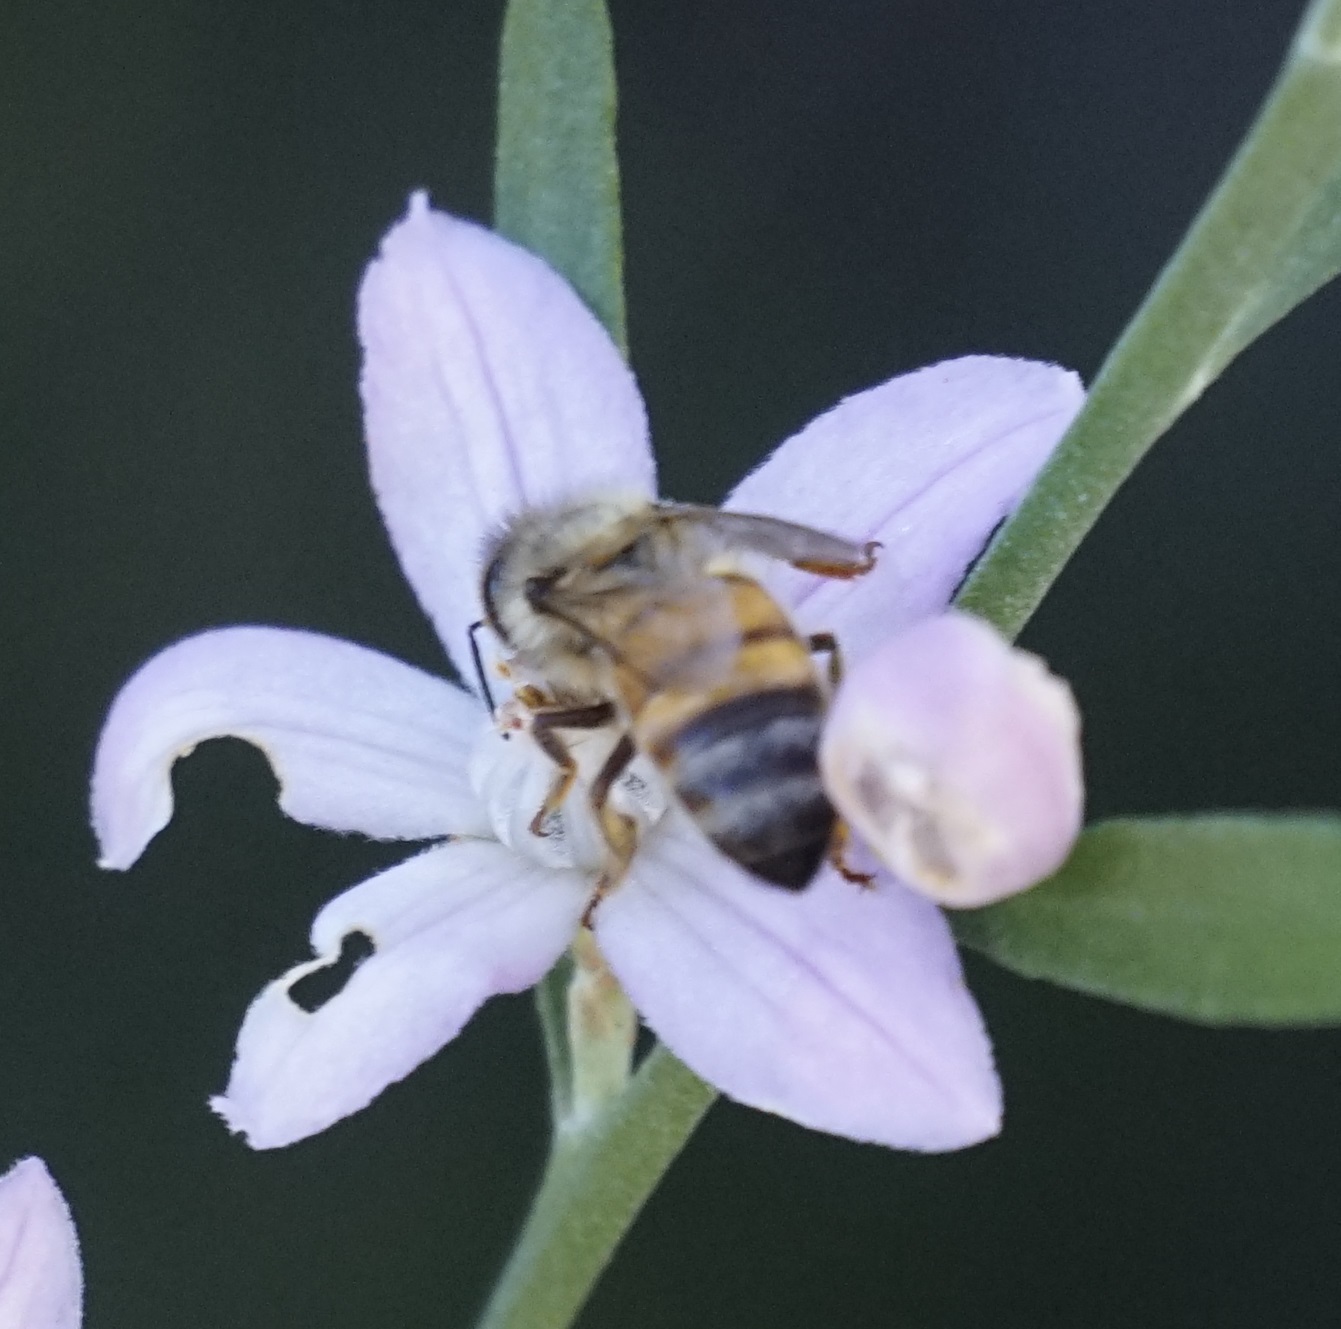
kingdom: Animalia
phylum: Arthropoda
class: Insecta
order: Hymenoptera
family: Apidae
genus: Apis
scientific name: Apis mellifera
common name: Honey bee
